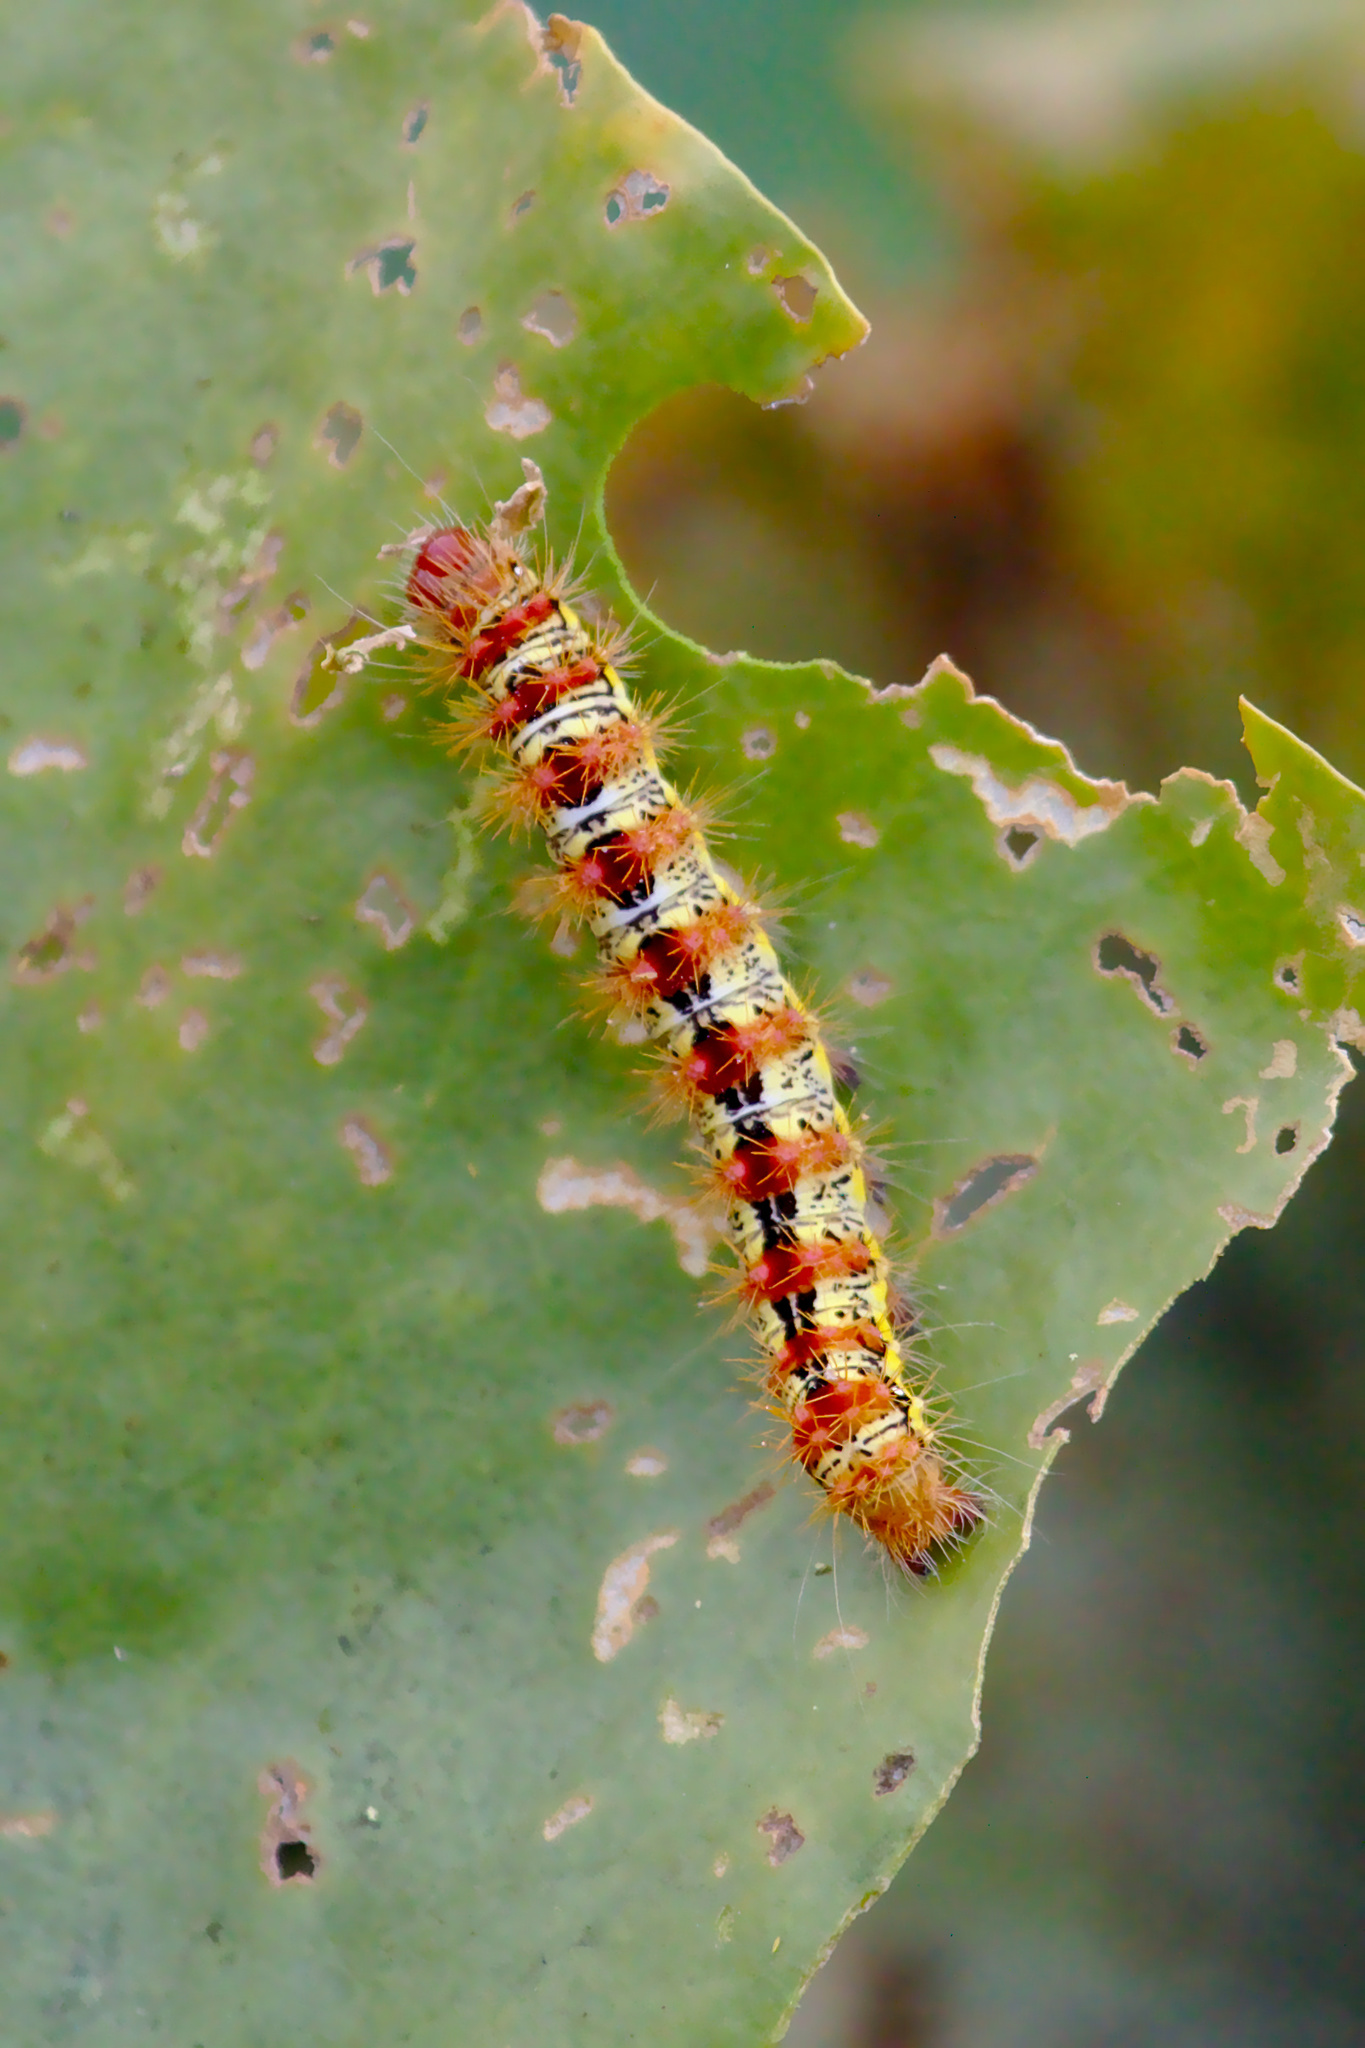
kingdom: Animalia
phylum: Arthropoda
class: Insecta
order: Lepidoptera
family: Noctuidae
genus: Acronicta
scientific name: Acronicta oblinita
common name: Smeared dagger
